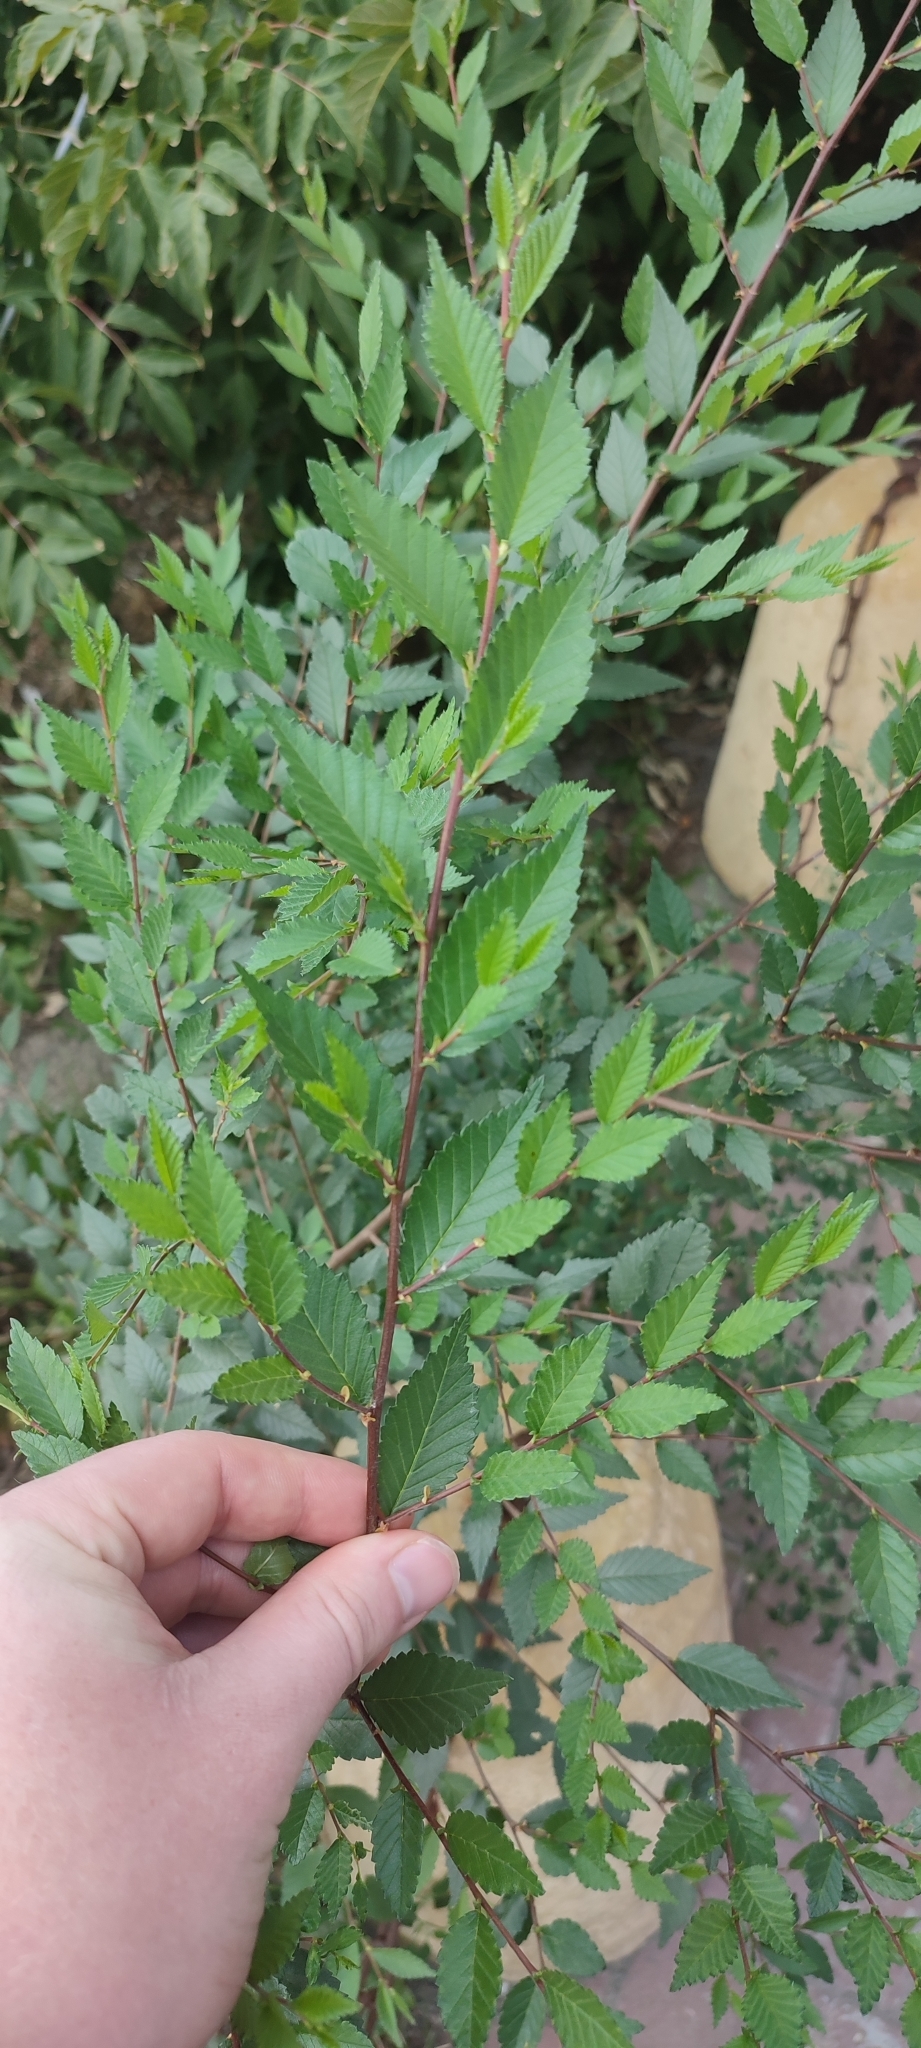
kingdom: Plantae
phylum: Tracheophyta
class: Magnoliopsida
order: Rosales
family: Ulmaceae
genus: Ulmus
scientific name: Ulmus pumila
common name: Siberian elm
